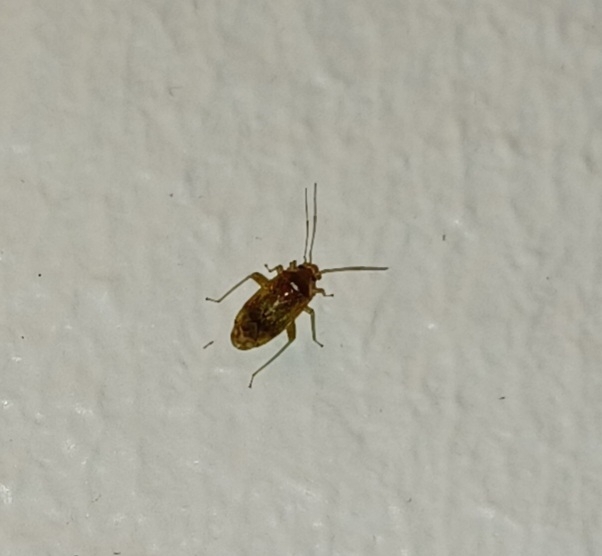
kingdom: Animalia
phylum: Arthropoda
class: Insecta
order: Hemiptera
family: Miridae
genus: Pinalitus
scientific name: Pinalitus cervinus
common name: Plant bug
